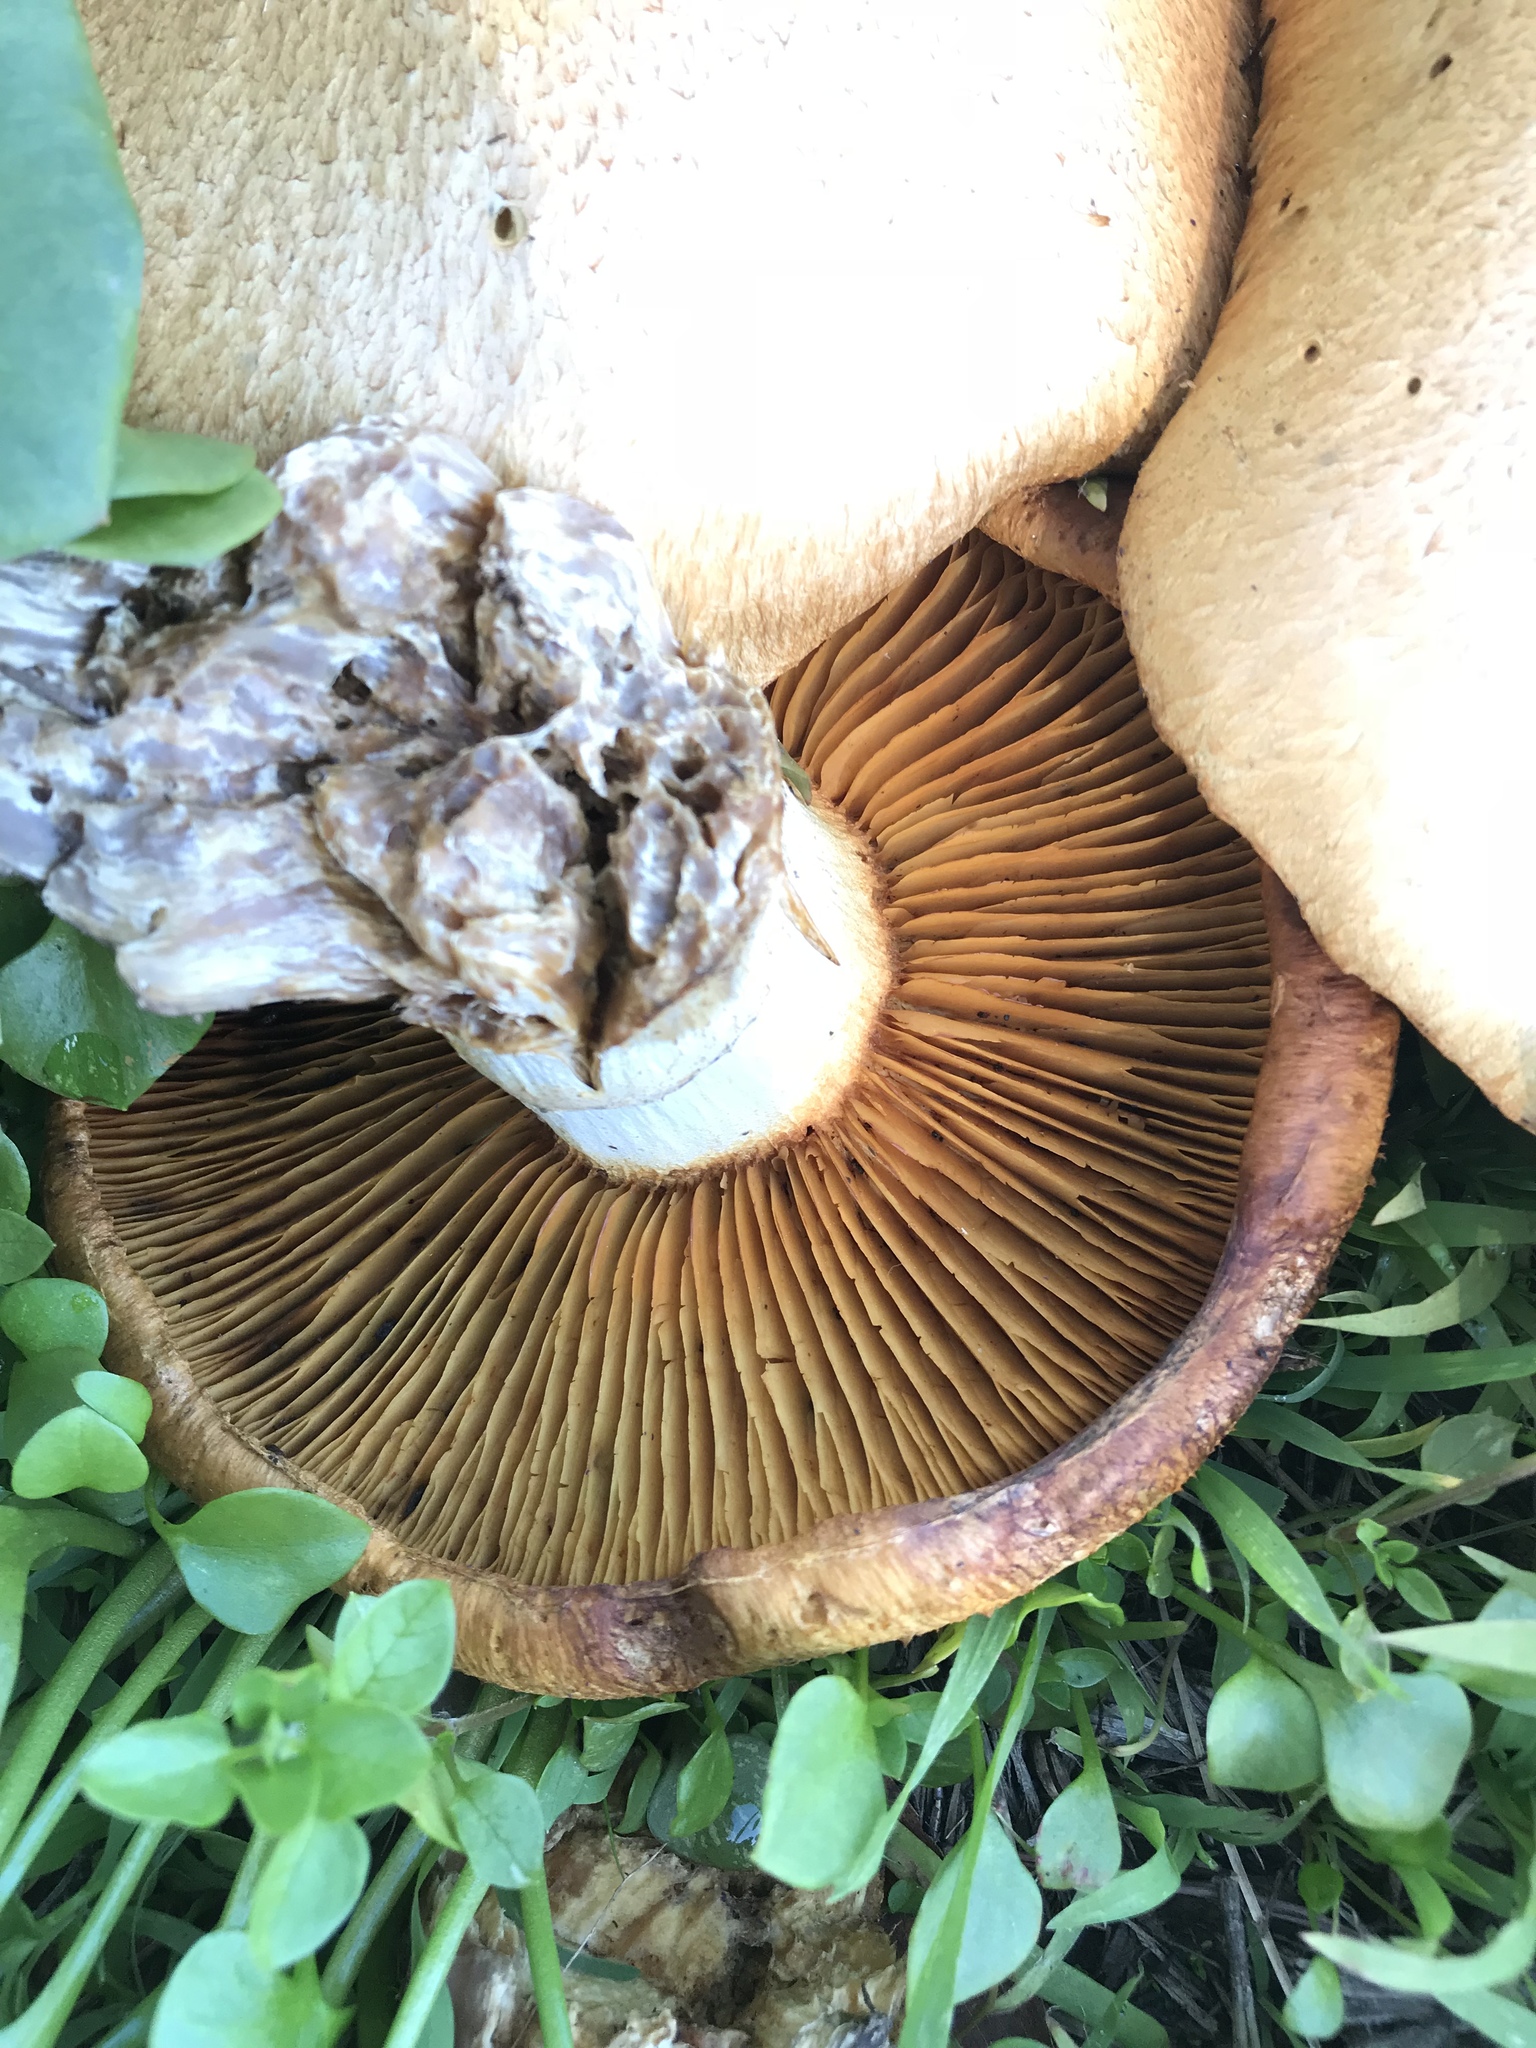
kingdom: Fungi
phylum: Basidiomycota
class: Agaricomycetes
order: Agaricales
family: Hymenogastraceae
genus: Gymnopilus
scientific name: Gymnopilus ventricosus
